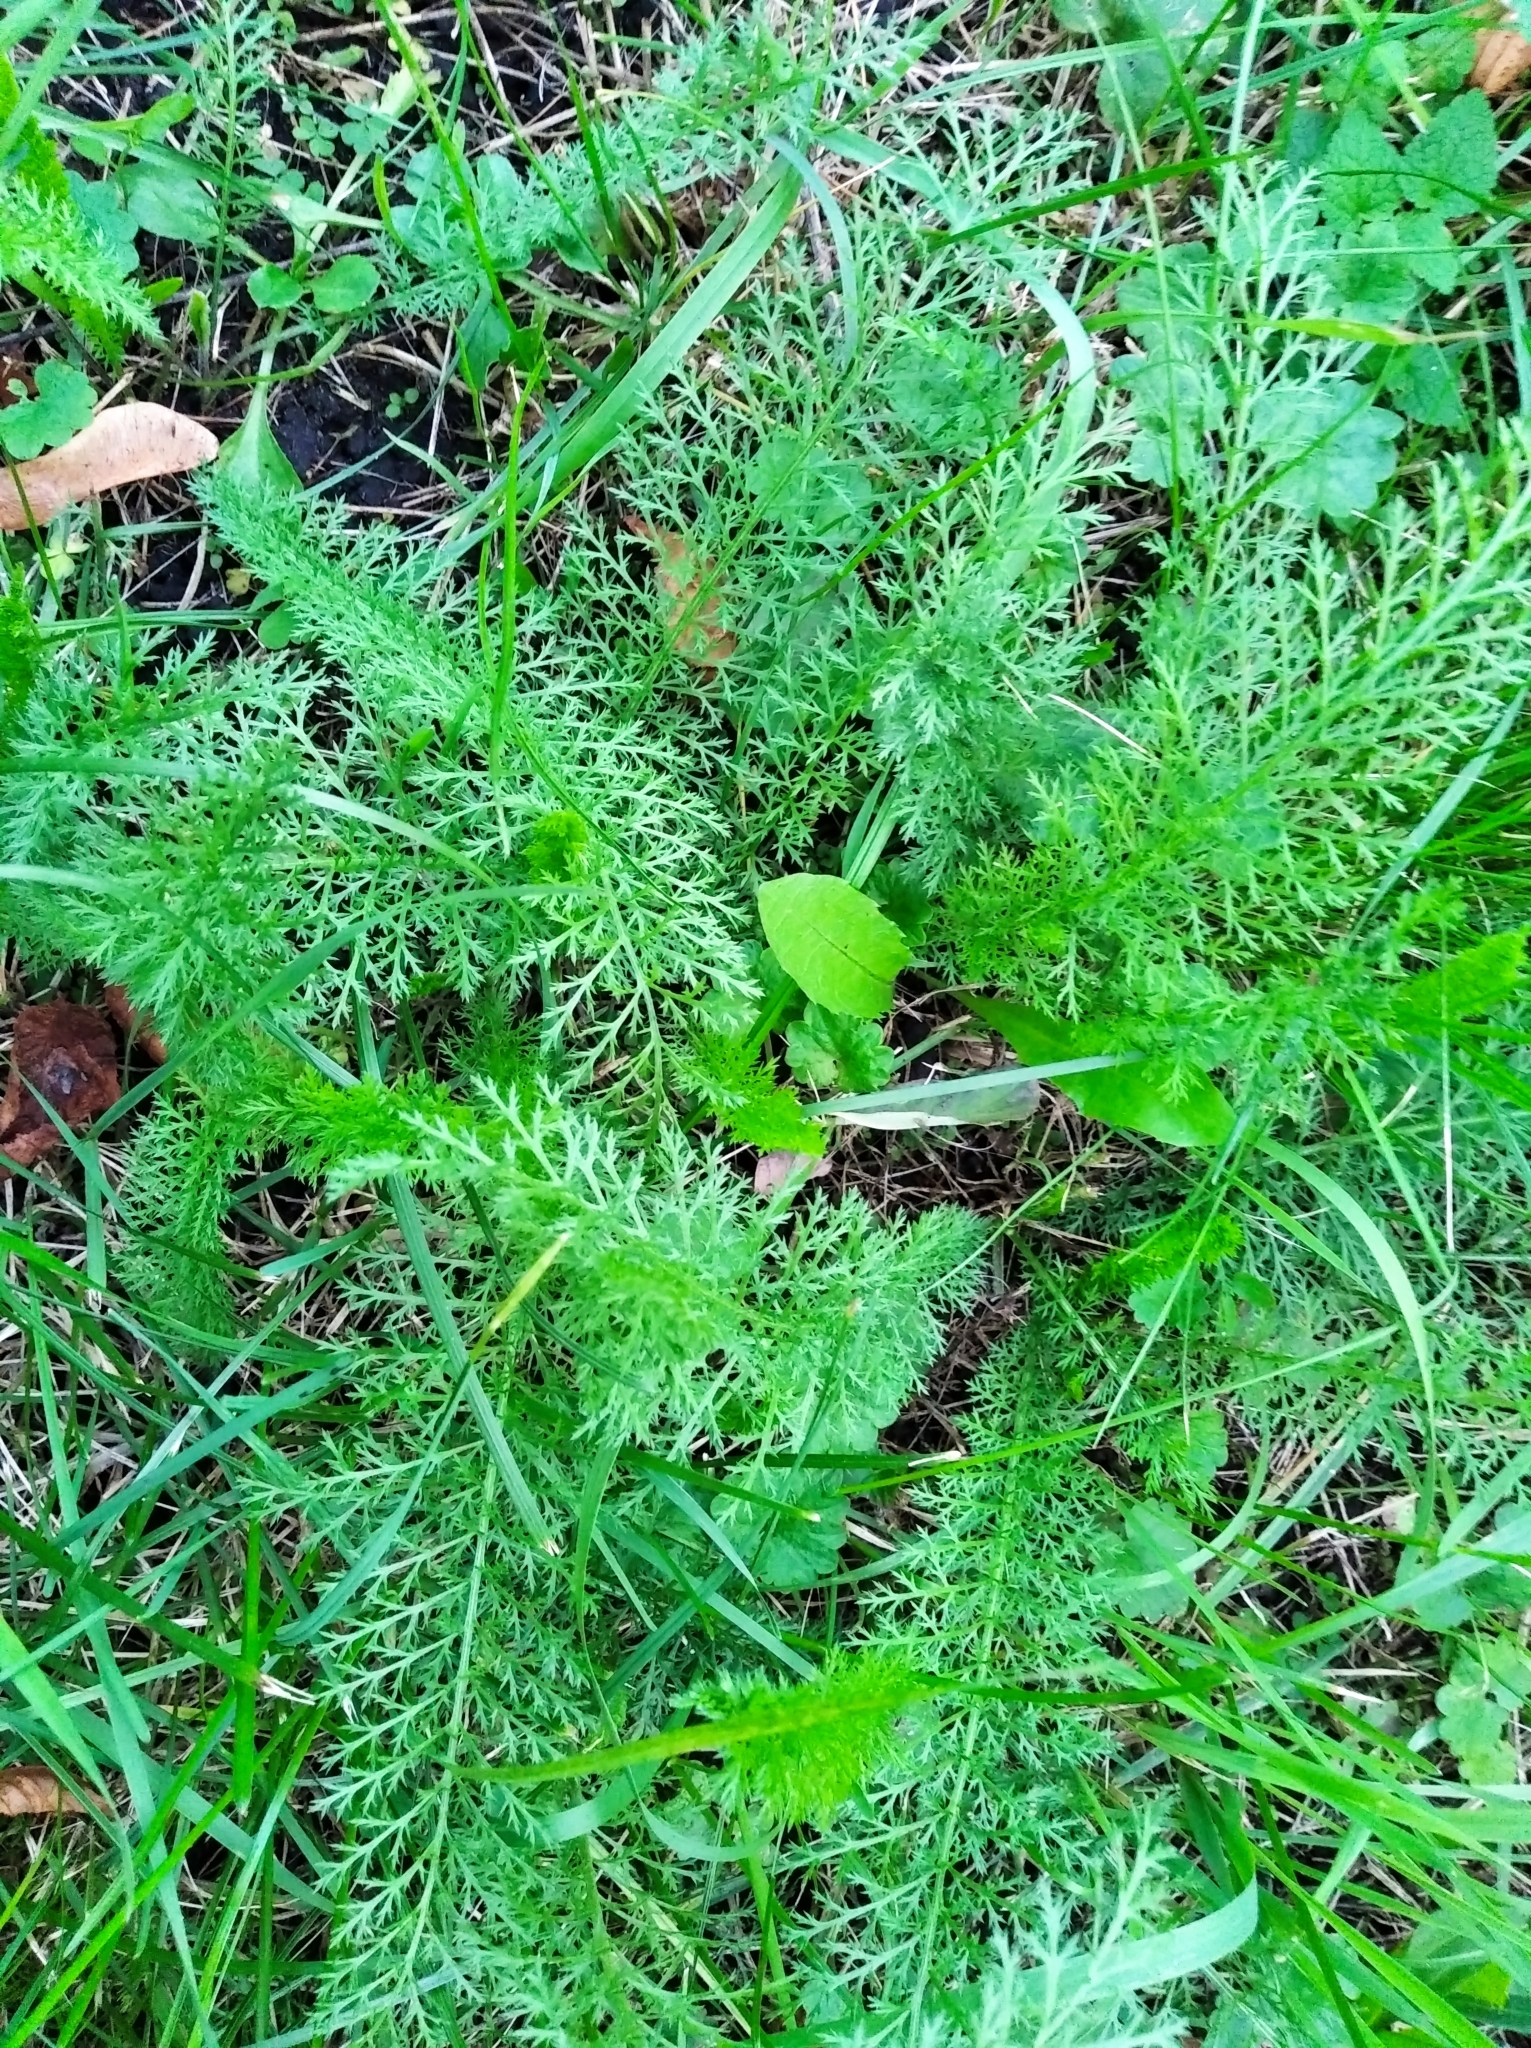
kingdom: Plantae
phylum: Tracheophyta
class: Magnoliopsida
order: Asterales
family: Asteraceae
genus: Achillea
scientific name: Achillea millefolium
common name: Yarrow
